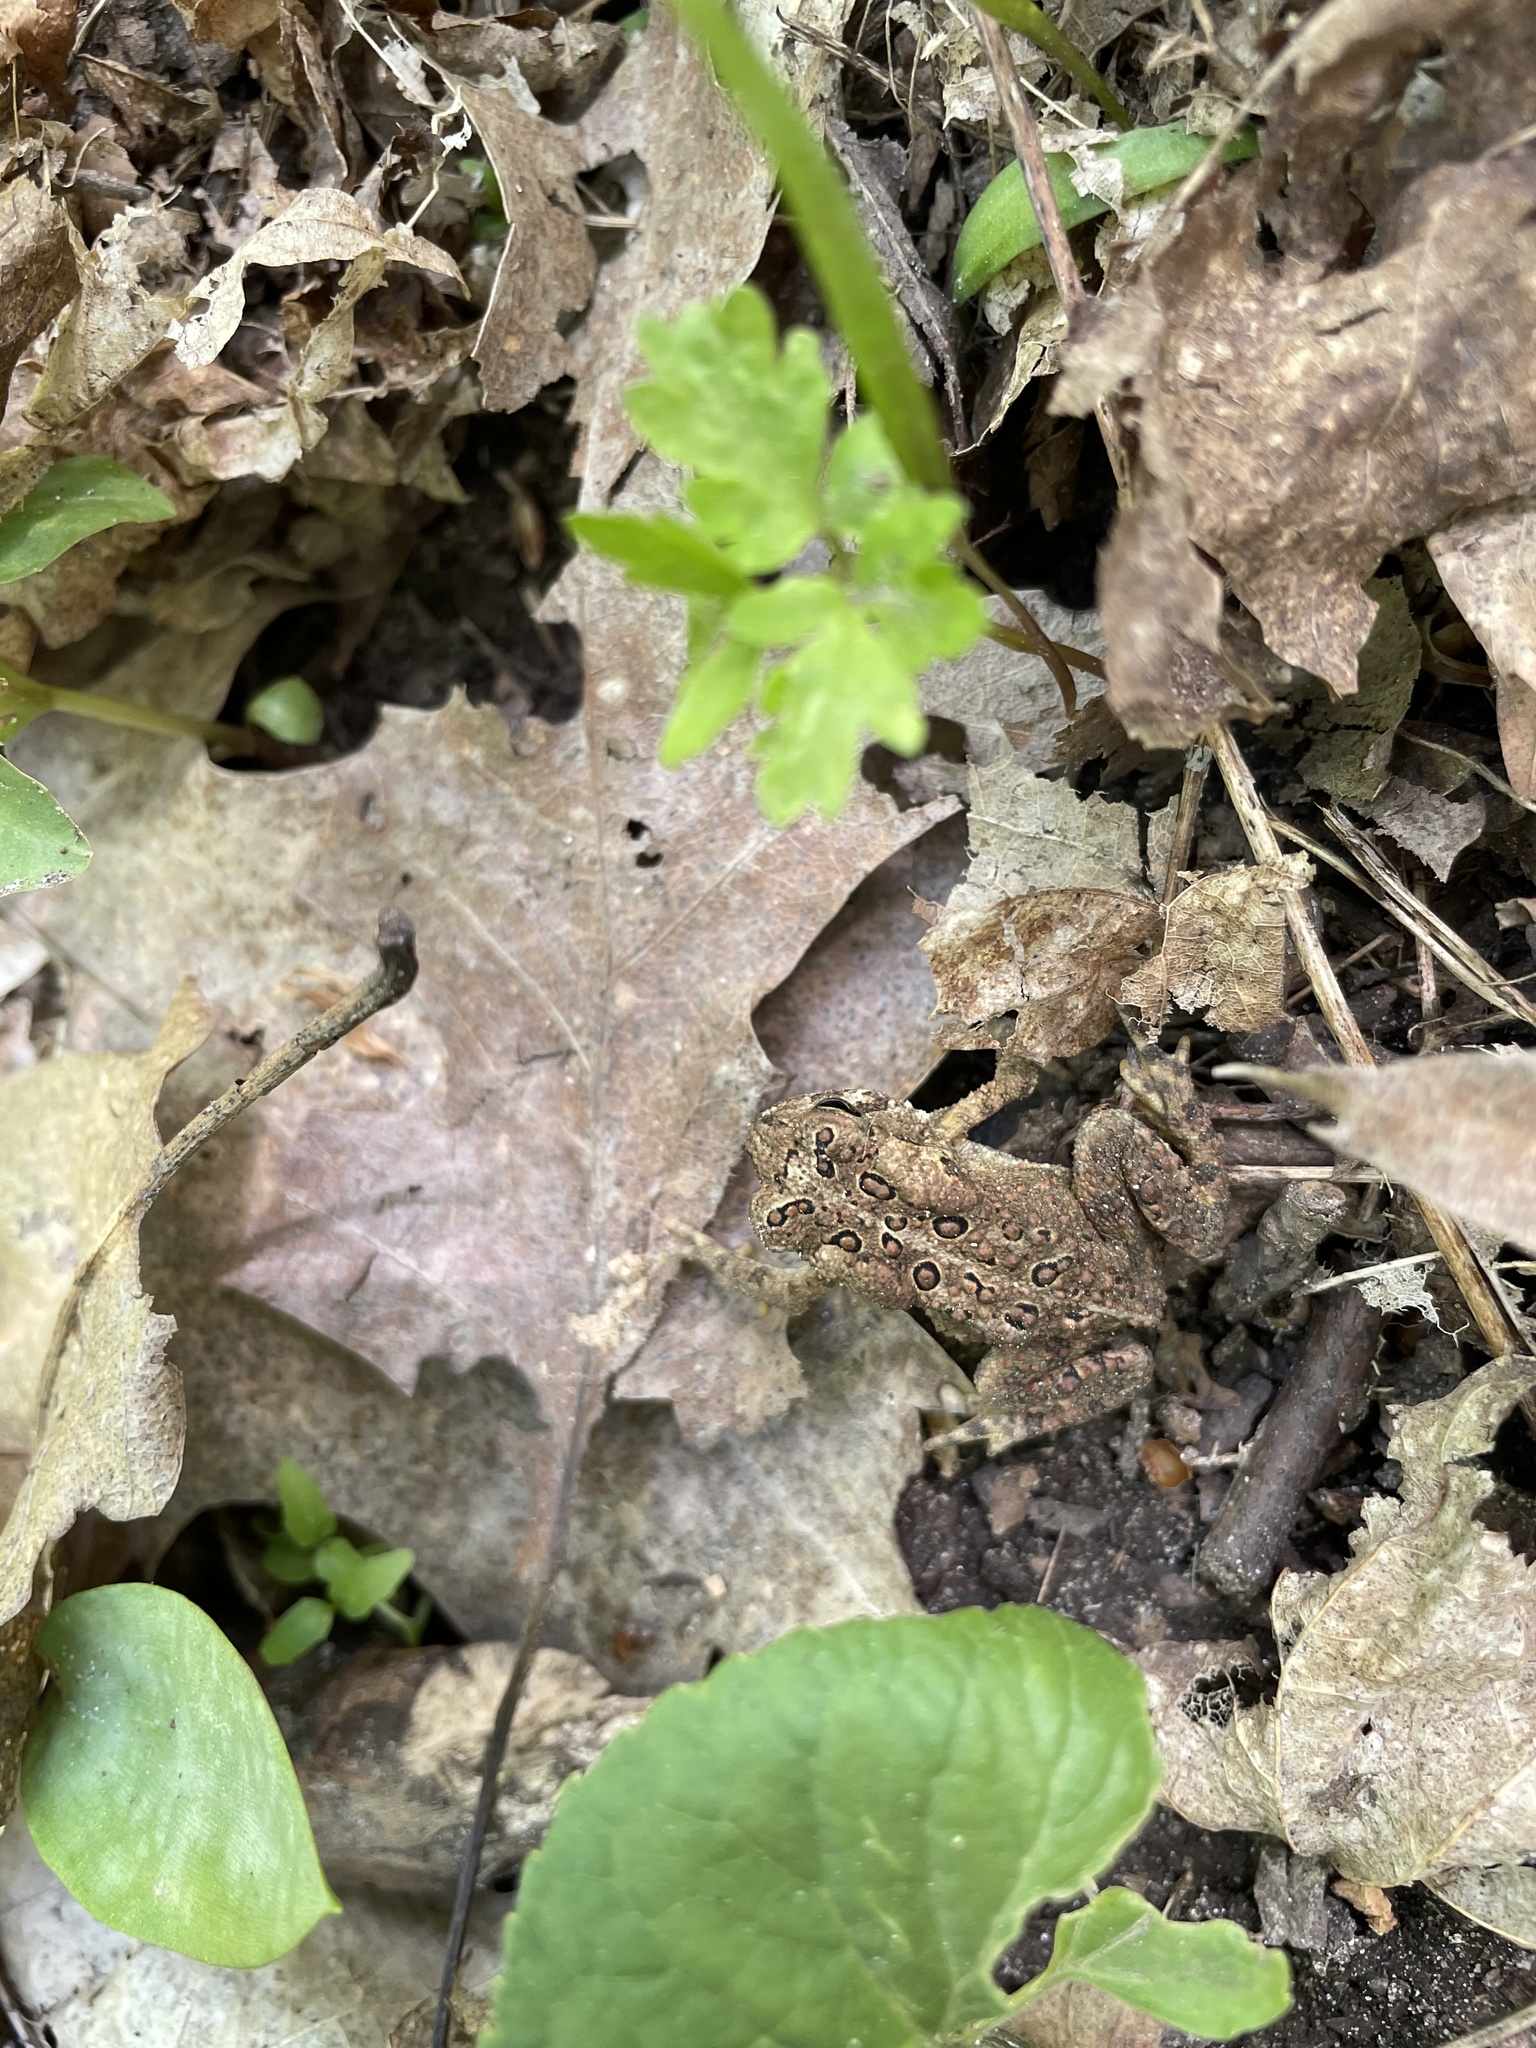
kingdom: Animalia
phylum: Chordata
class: Amphibia
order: Anura
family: Bufonidae
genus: Anaxyrus
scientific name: Anaxyrus americanus
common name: American toad
